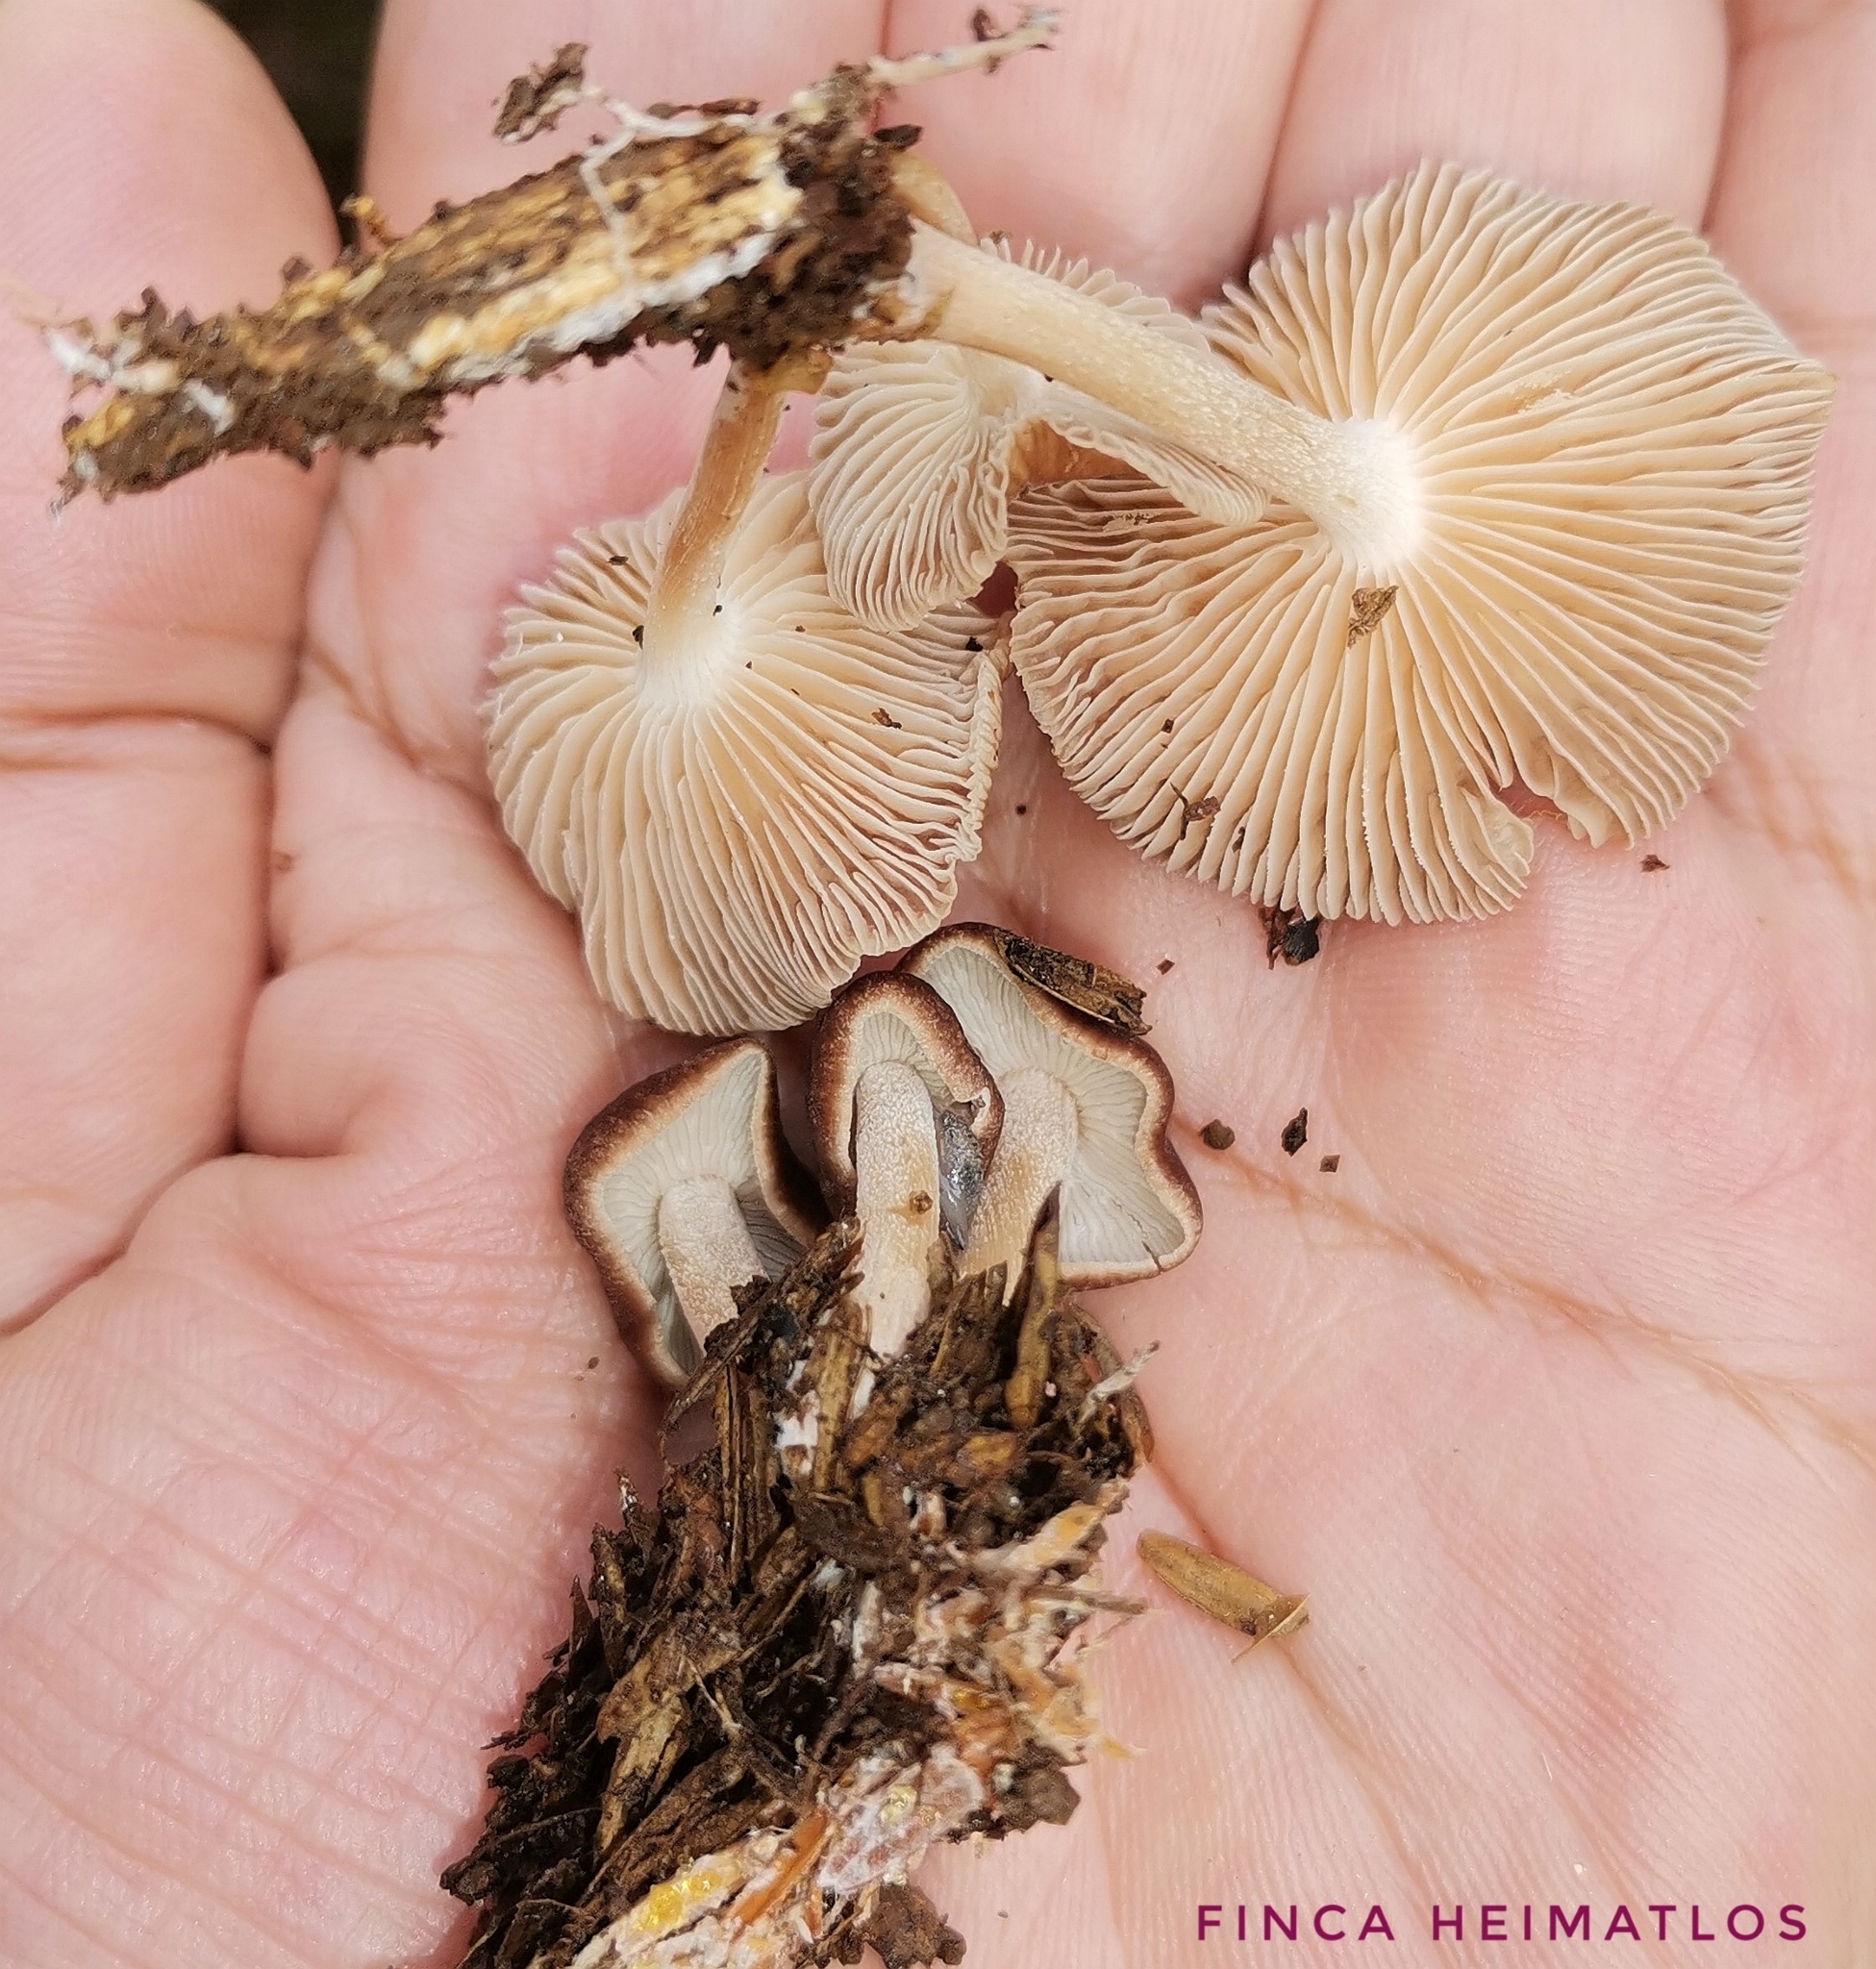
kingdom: Fungi
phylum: Basidiomycota
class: Agaricomycetes
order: Agaricales
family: Omphalotaceae
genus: Collybiopsis
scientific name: Collybiopsis gibbosa
